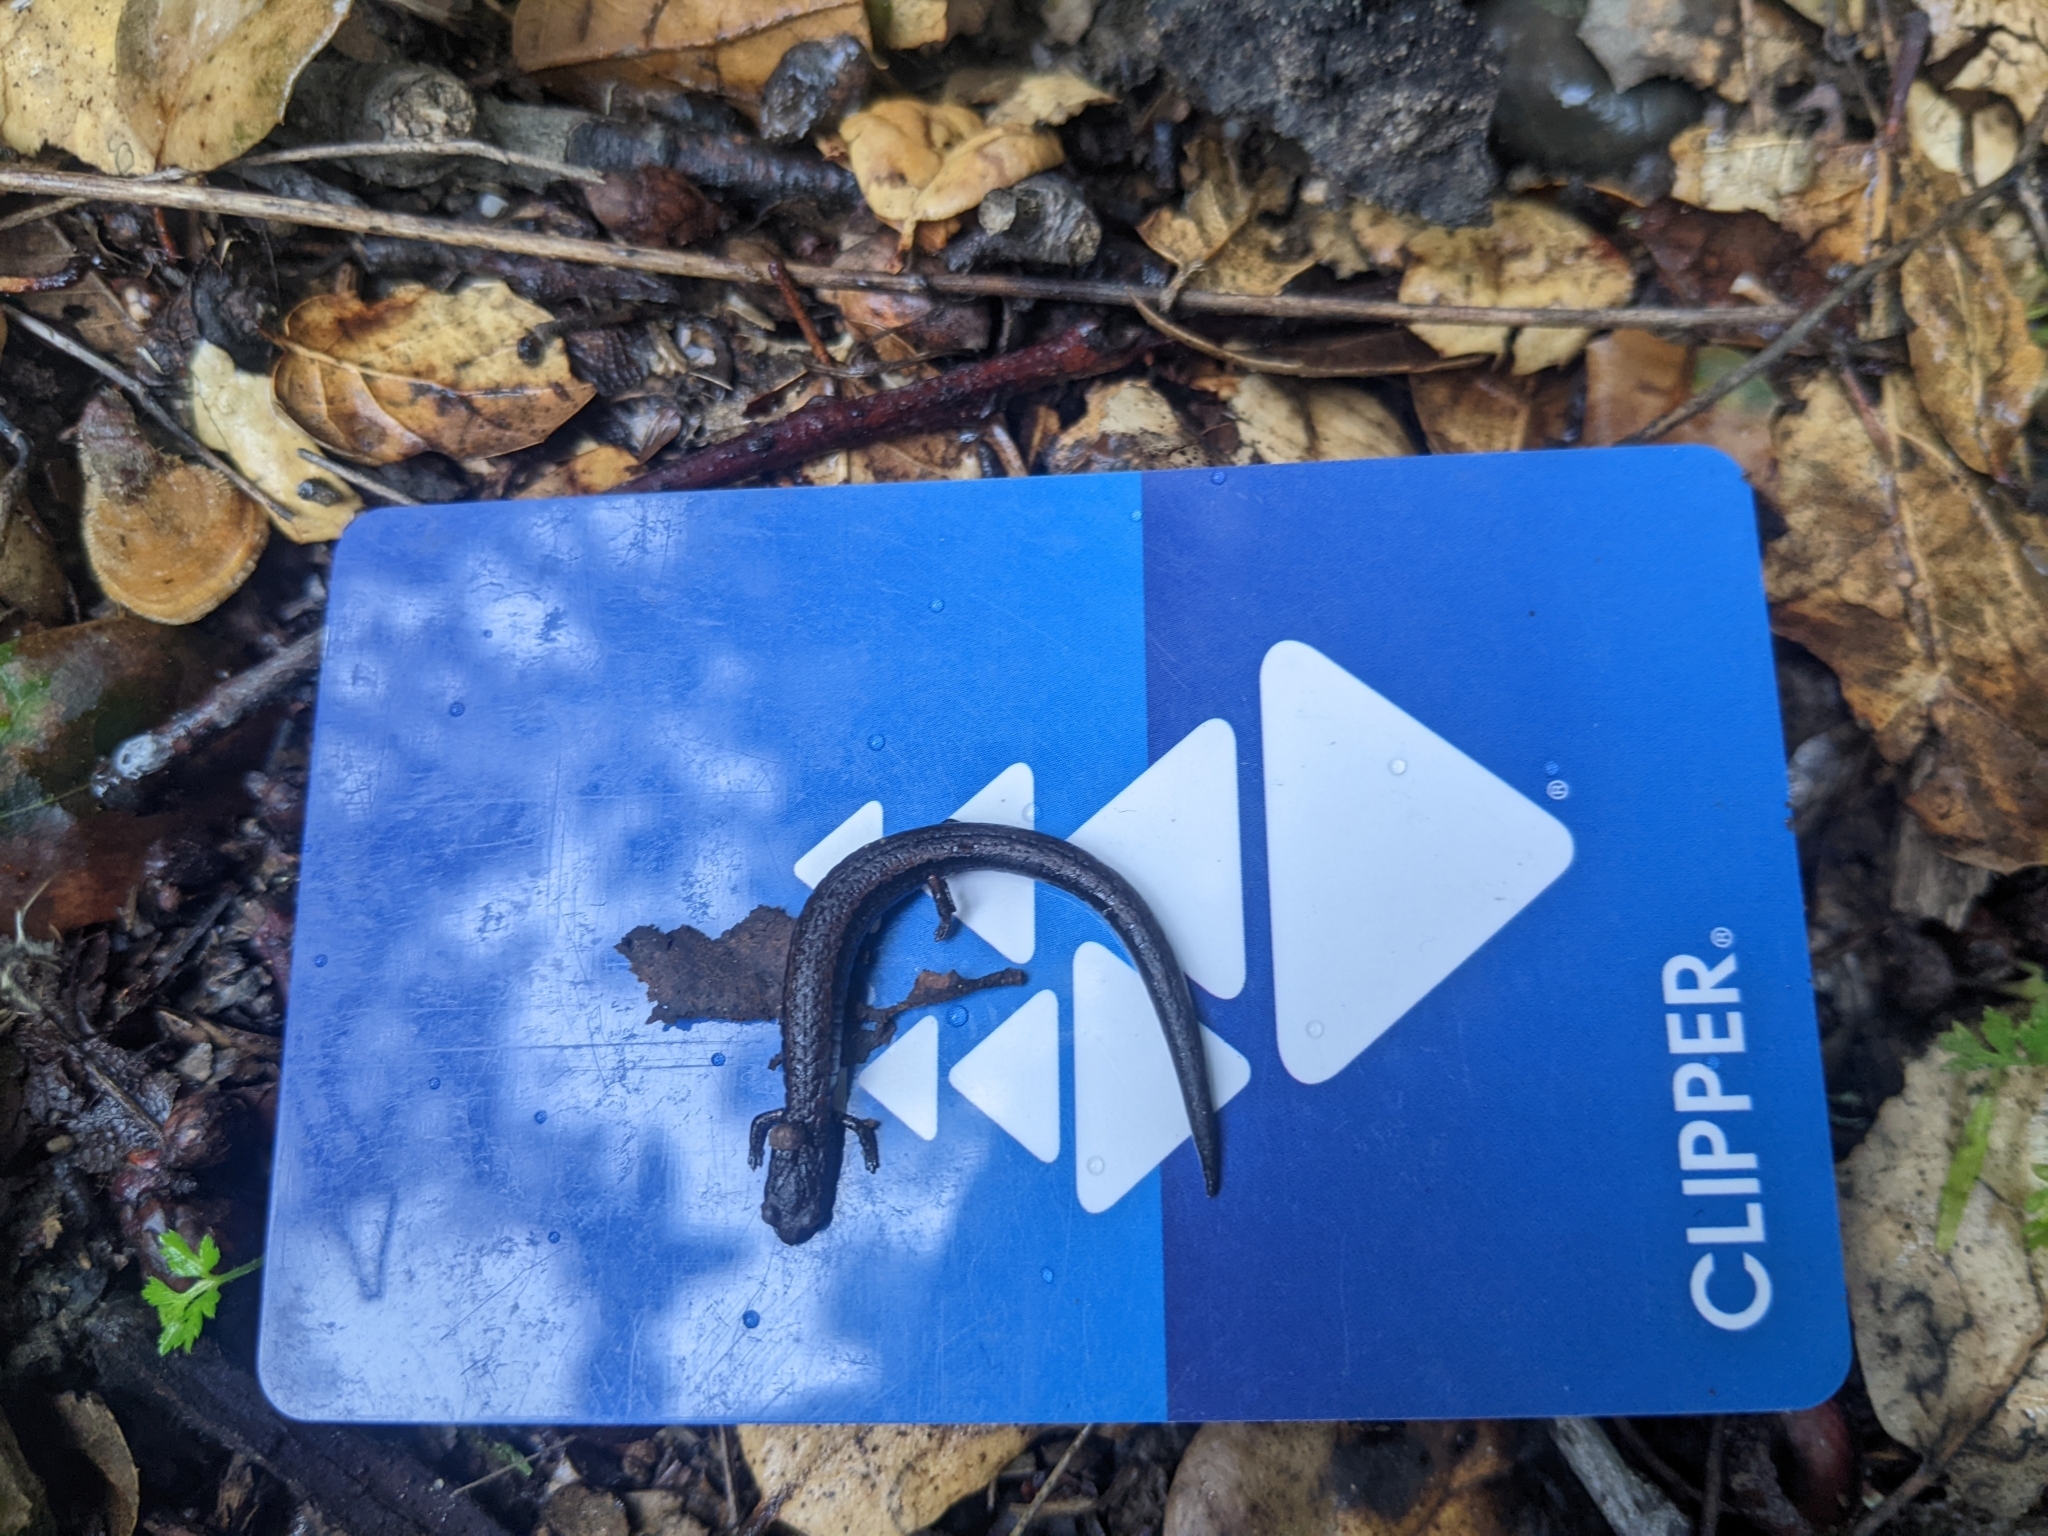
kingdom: Animalia
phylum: Chordata
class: Amphibia
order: Caudata
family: Plethodontidae
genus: Batrachoseps
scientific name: Batrachoseps attenuatus
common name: California slender salamander
